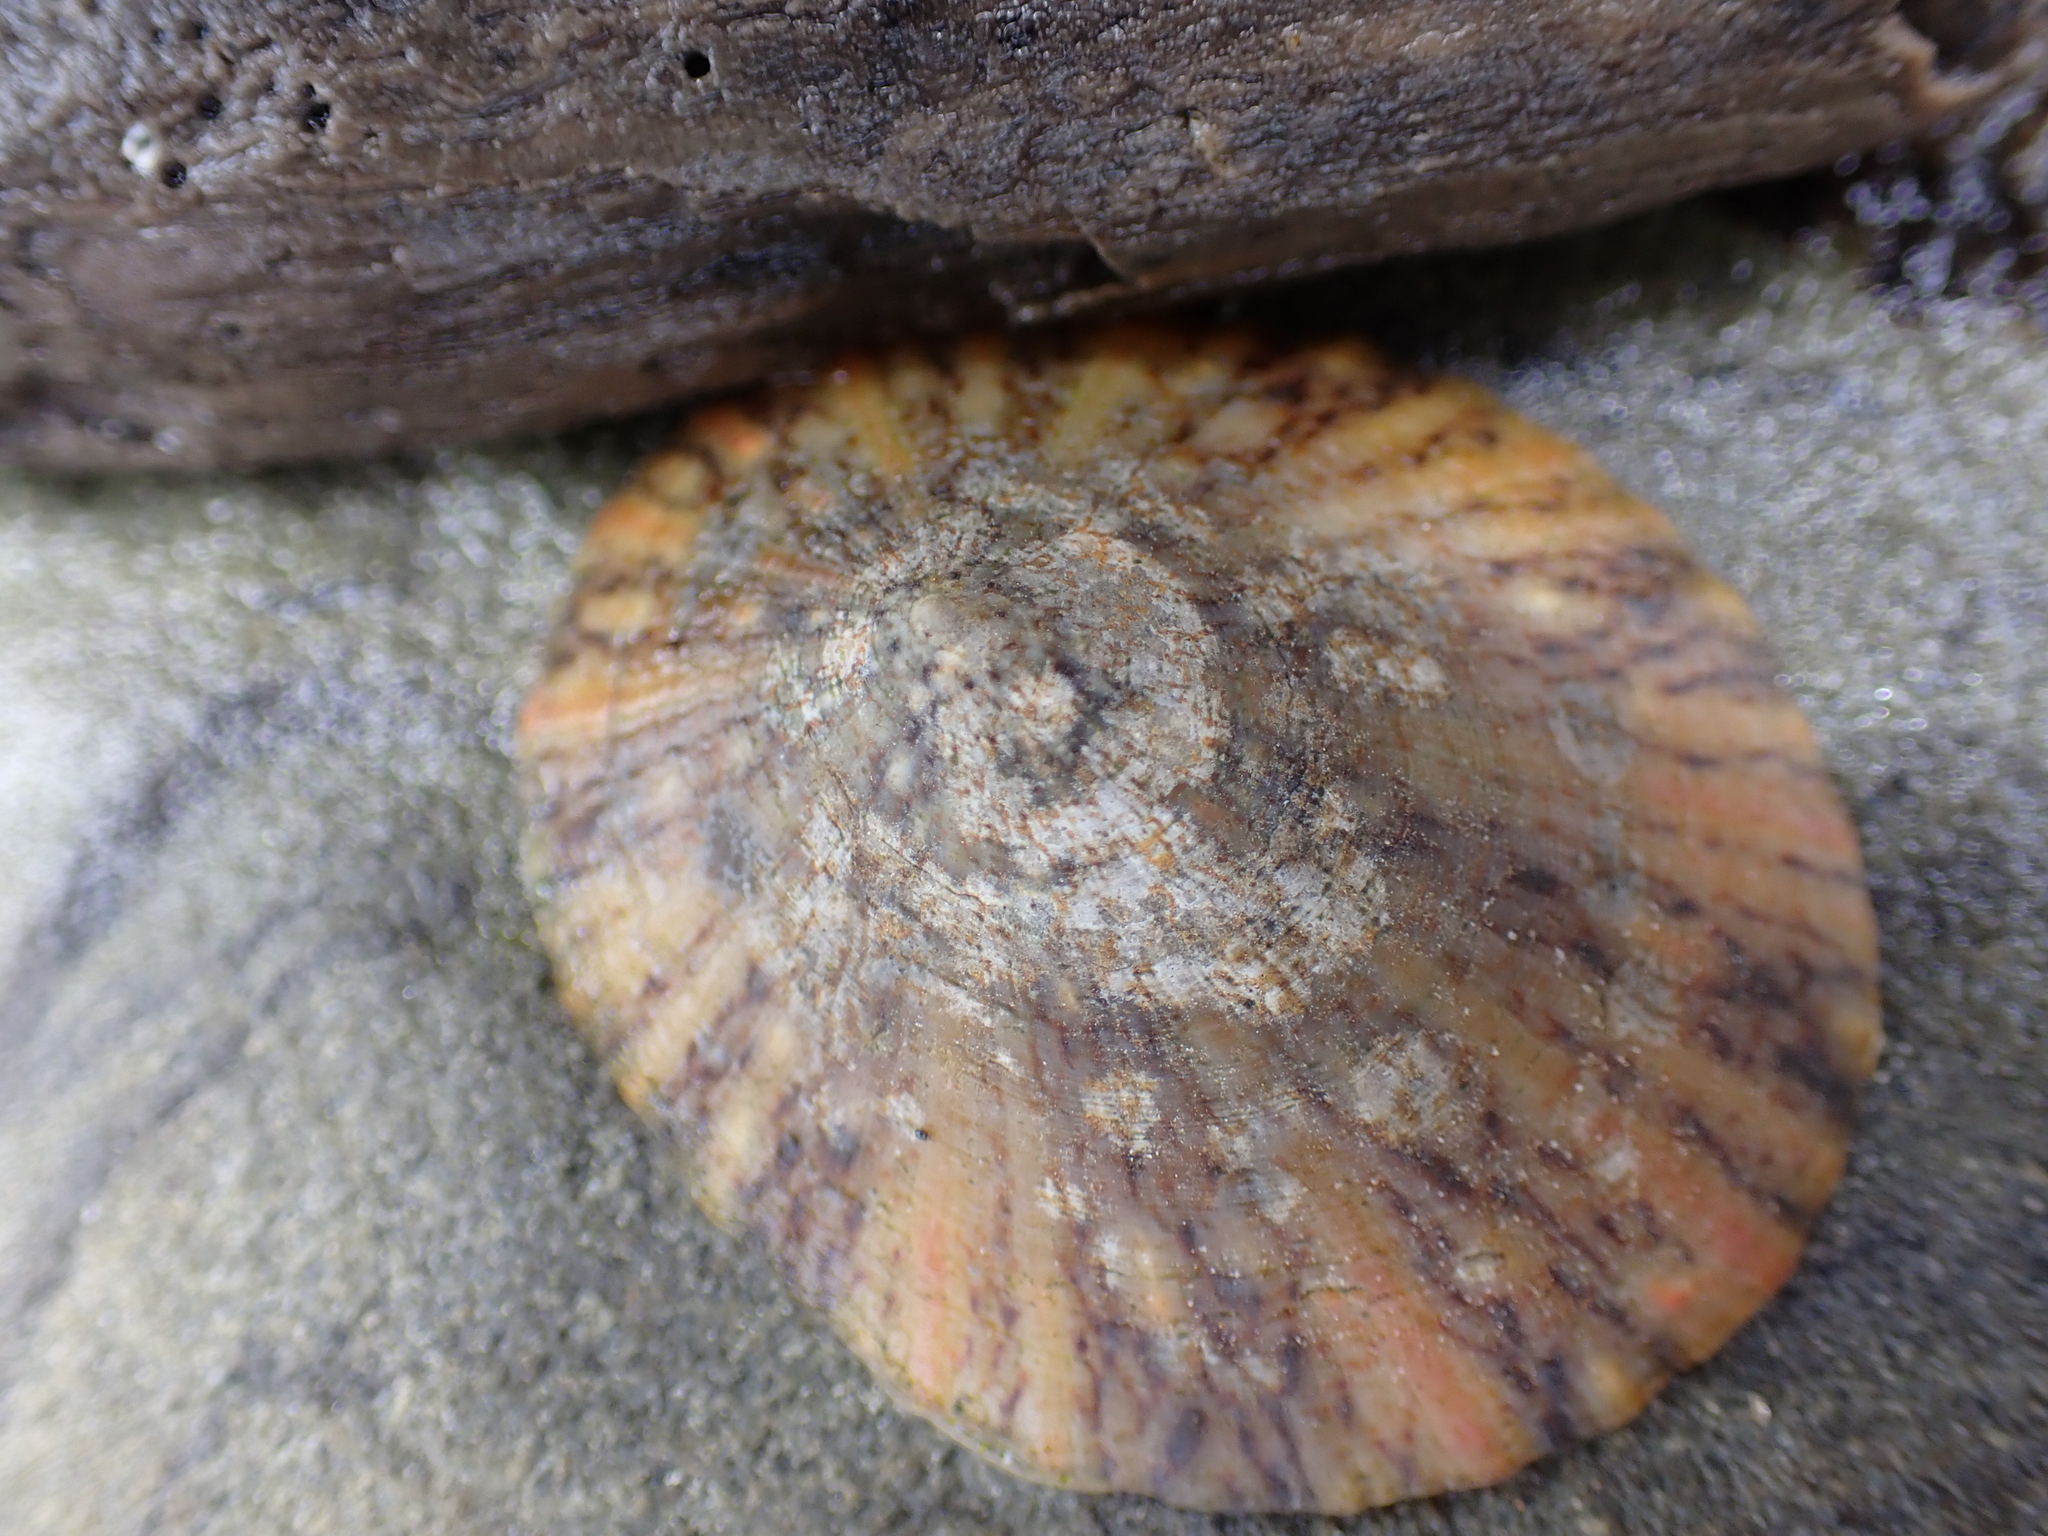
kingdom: Animalia
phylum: Mollusca
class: Gastropoda
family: Nacellidae
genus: Cellana
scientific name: Cellana tramoserica
